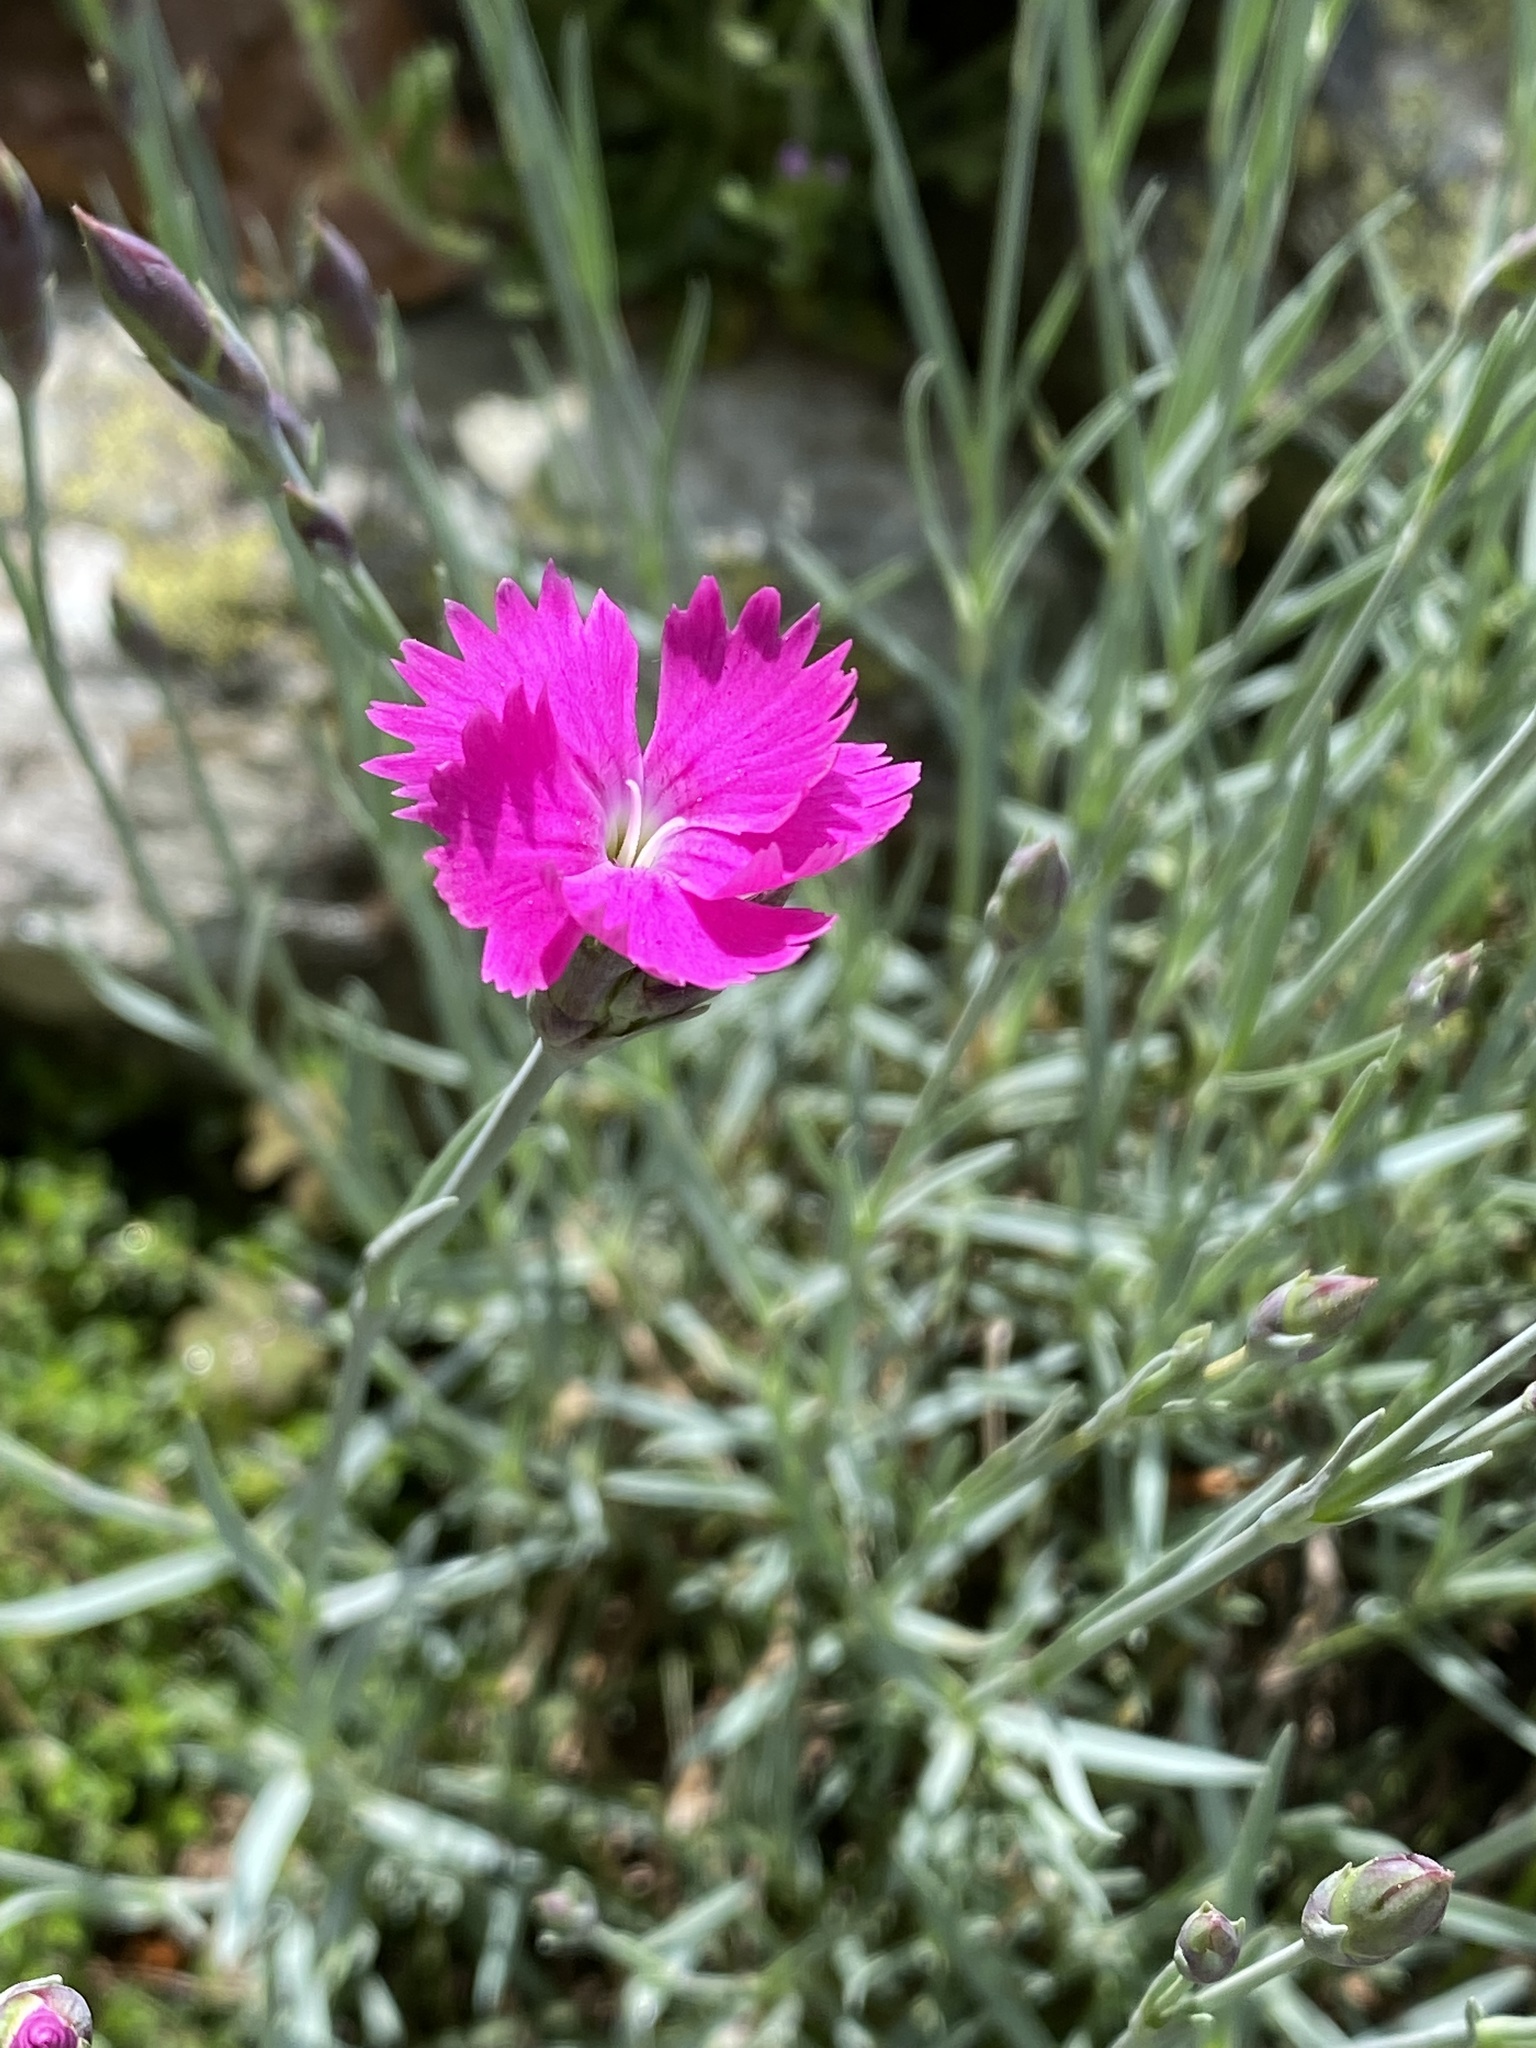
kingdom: Plantae
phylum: Tracheophyta
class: Magnoliopsida
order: Caryophyllales
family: Caryophyllaceae
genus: Dianthus
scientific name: Dianthus sylvestris
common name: Wood pink
